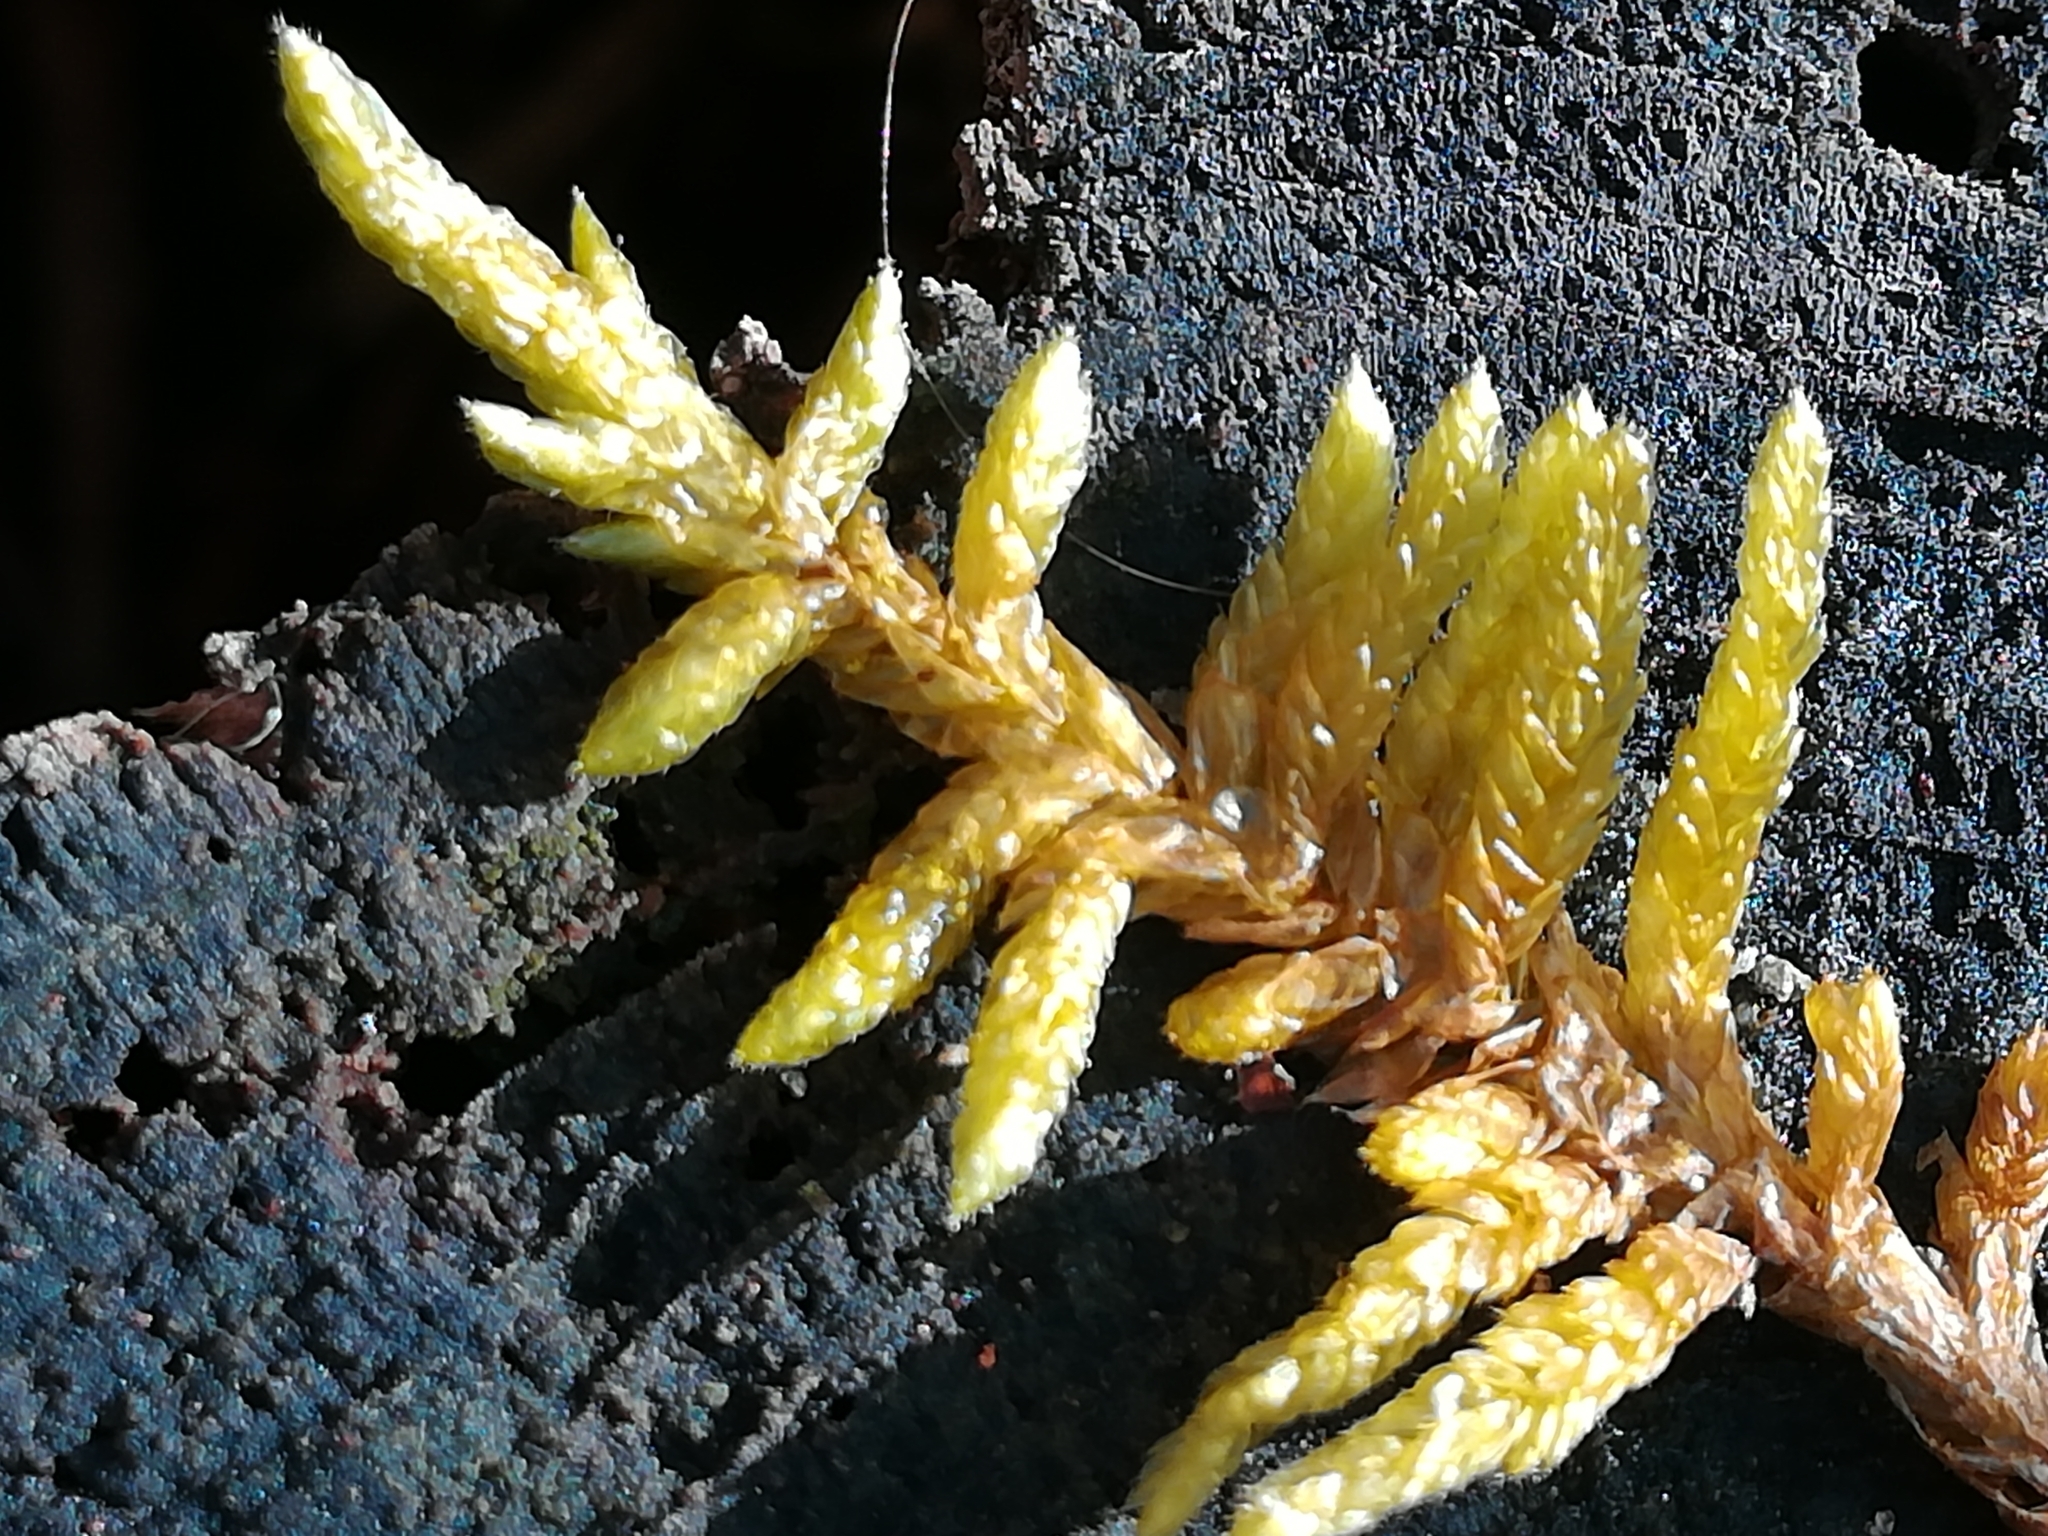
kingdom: Plantae
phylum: Bryophyta
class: Bryopsida
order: Hypnales
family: Brachytheciaceae
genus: Pseudoscleropodium
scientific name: Pseudoscleropodium purum
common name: Neat feather-moss
